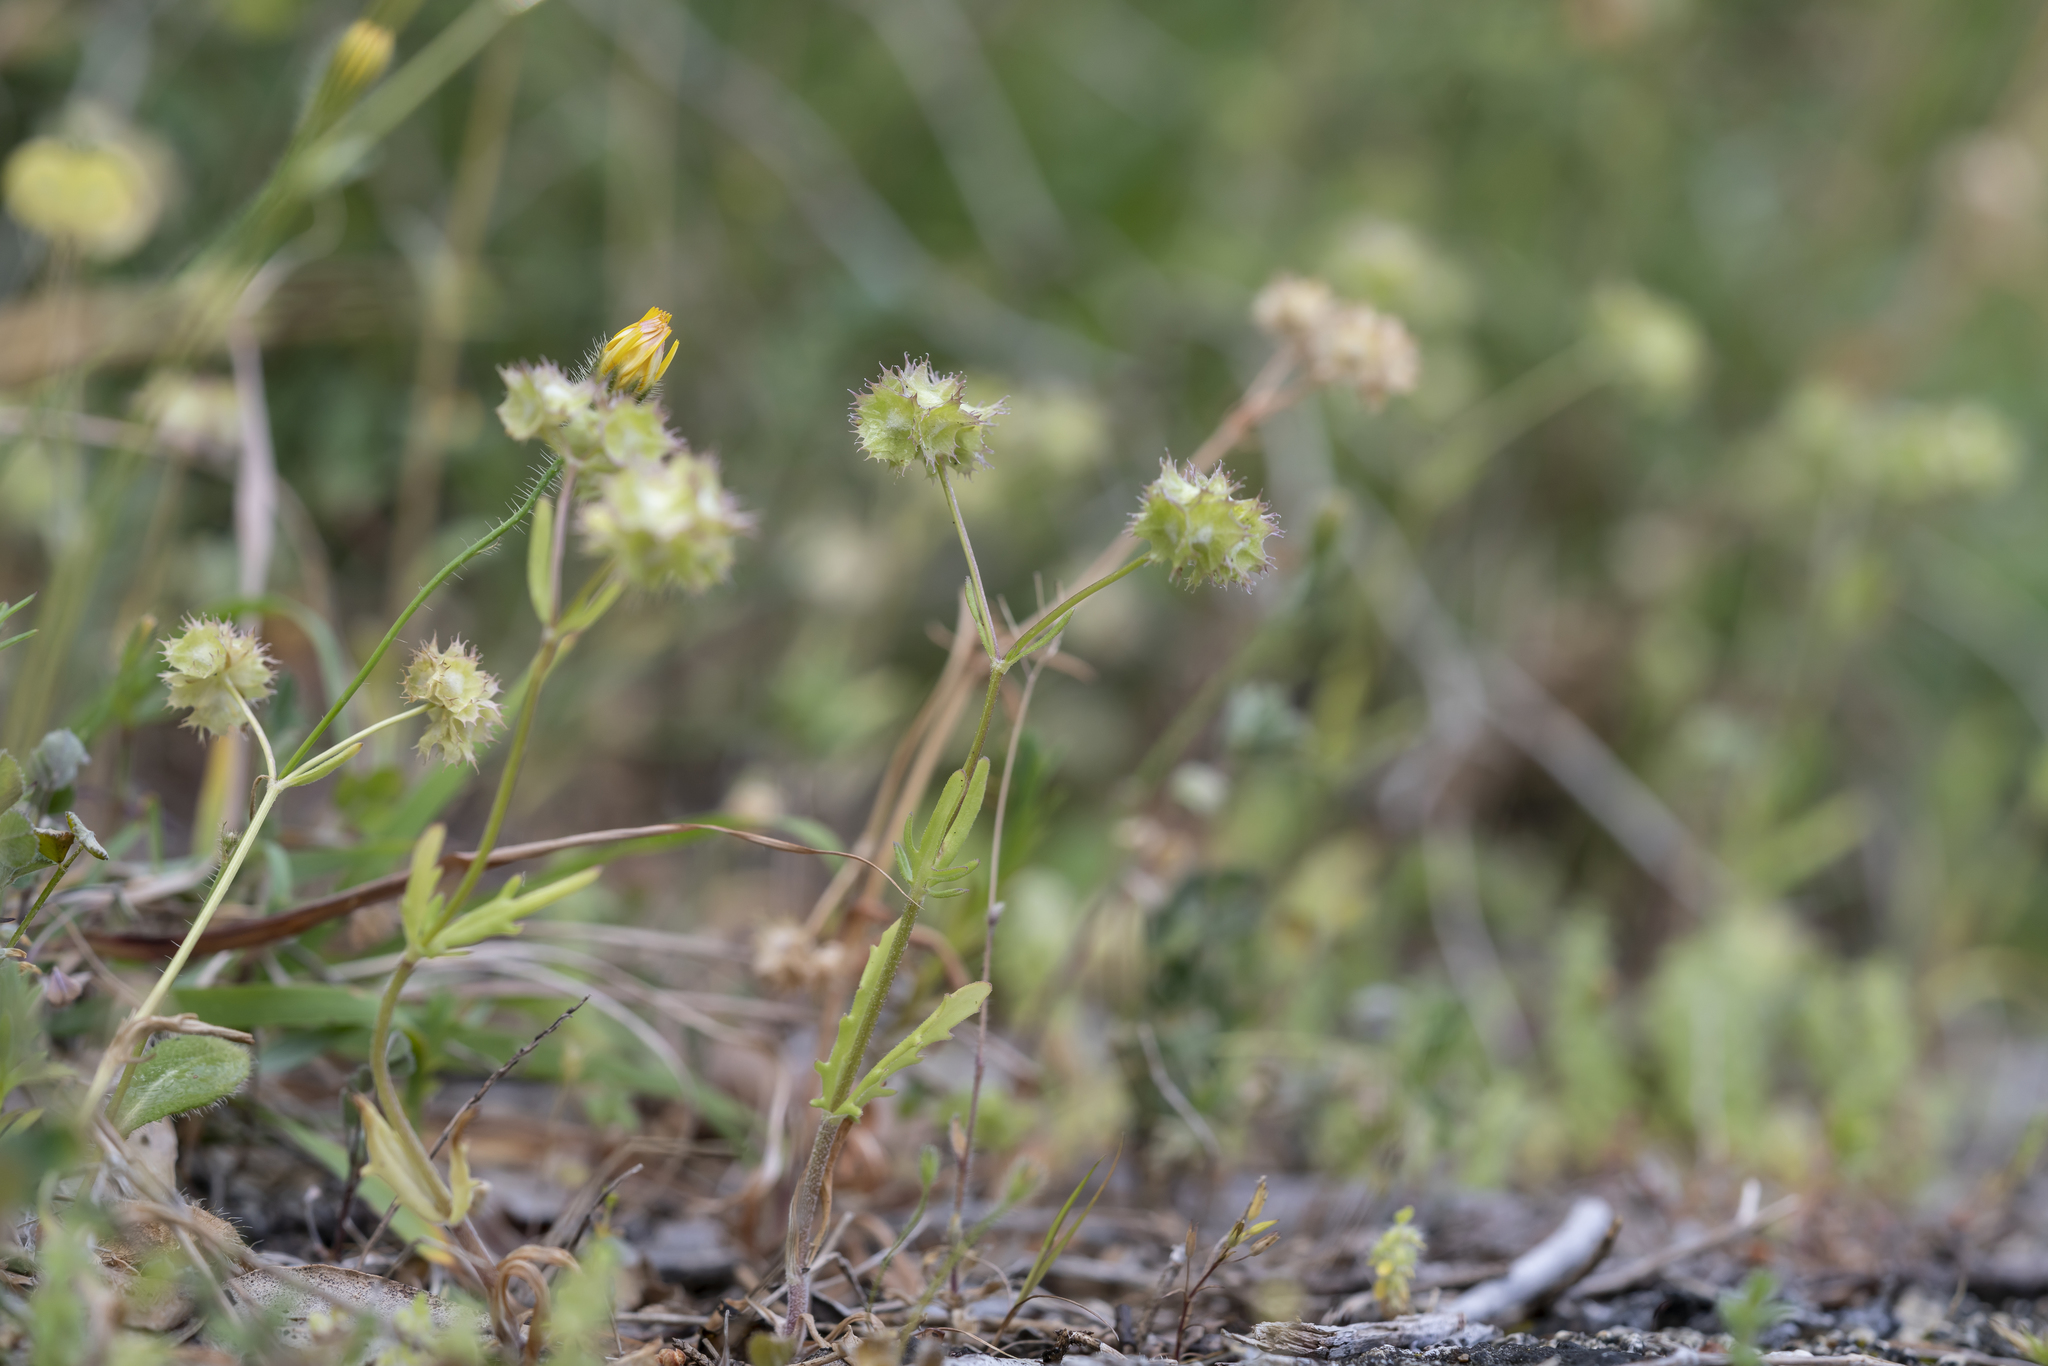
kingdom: Plantae
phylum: Tracheophyta
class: Magnoliopsida
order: Dipsacales
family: Caprifoliaceae
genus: Valerianella
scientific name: Valerianella obtusiloba
